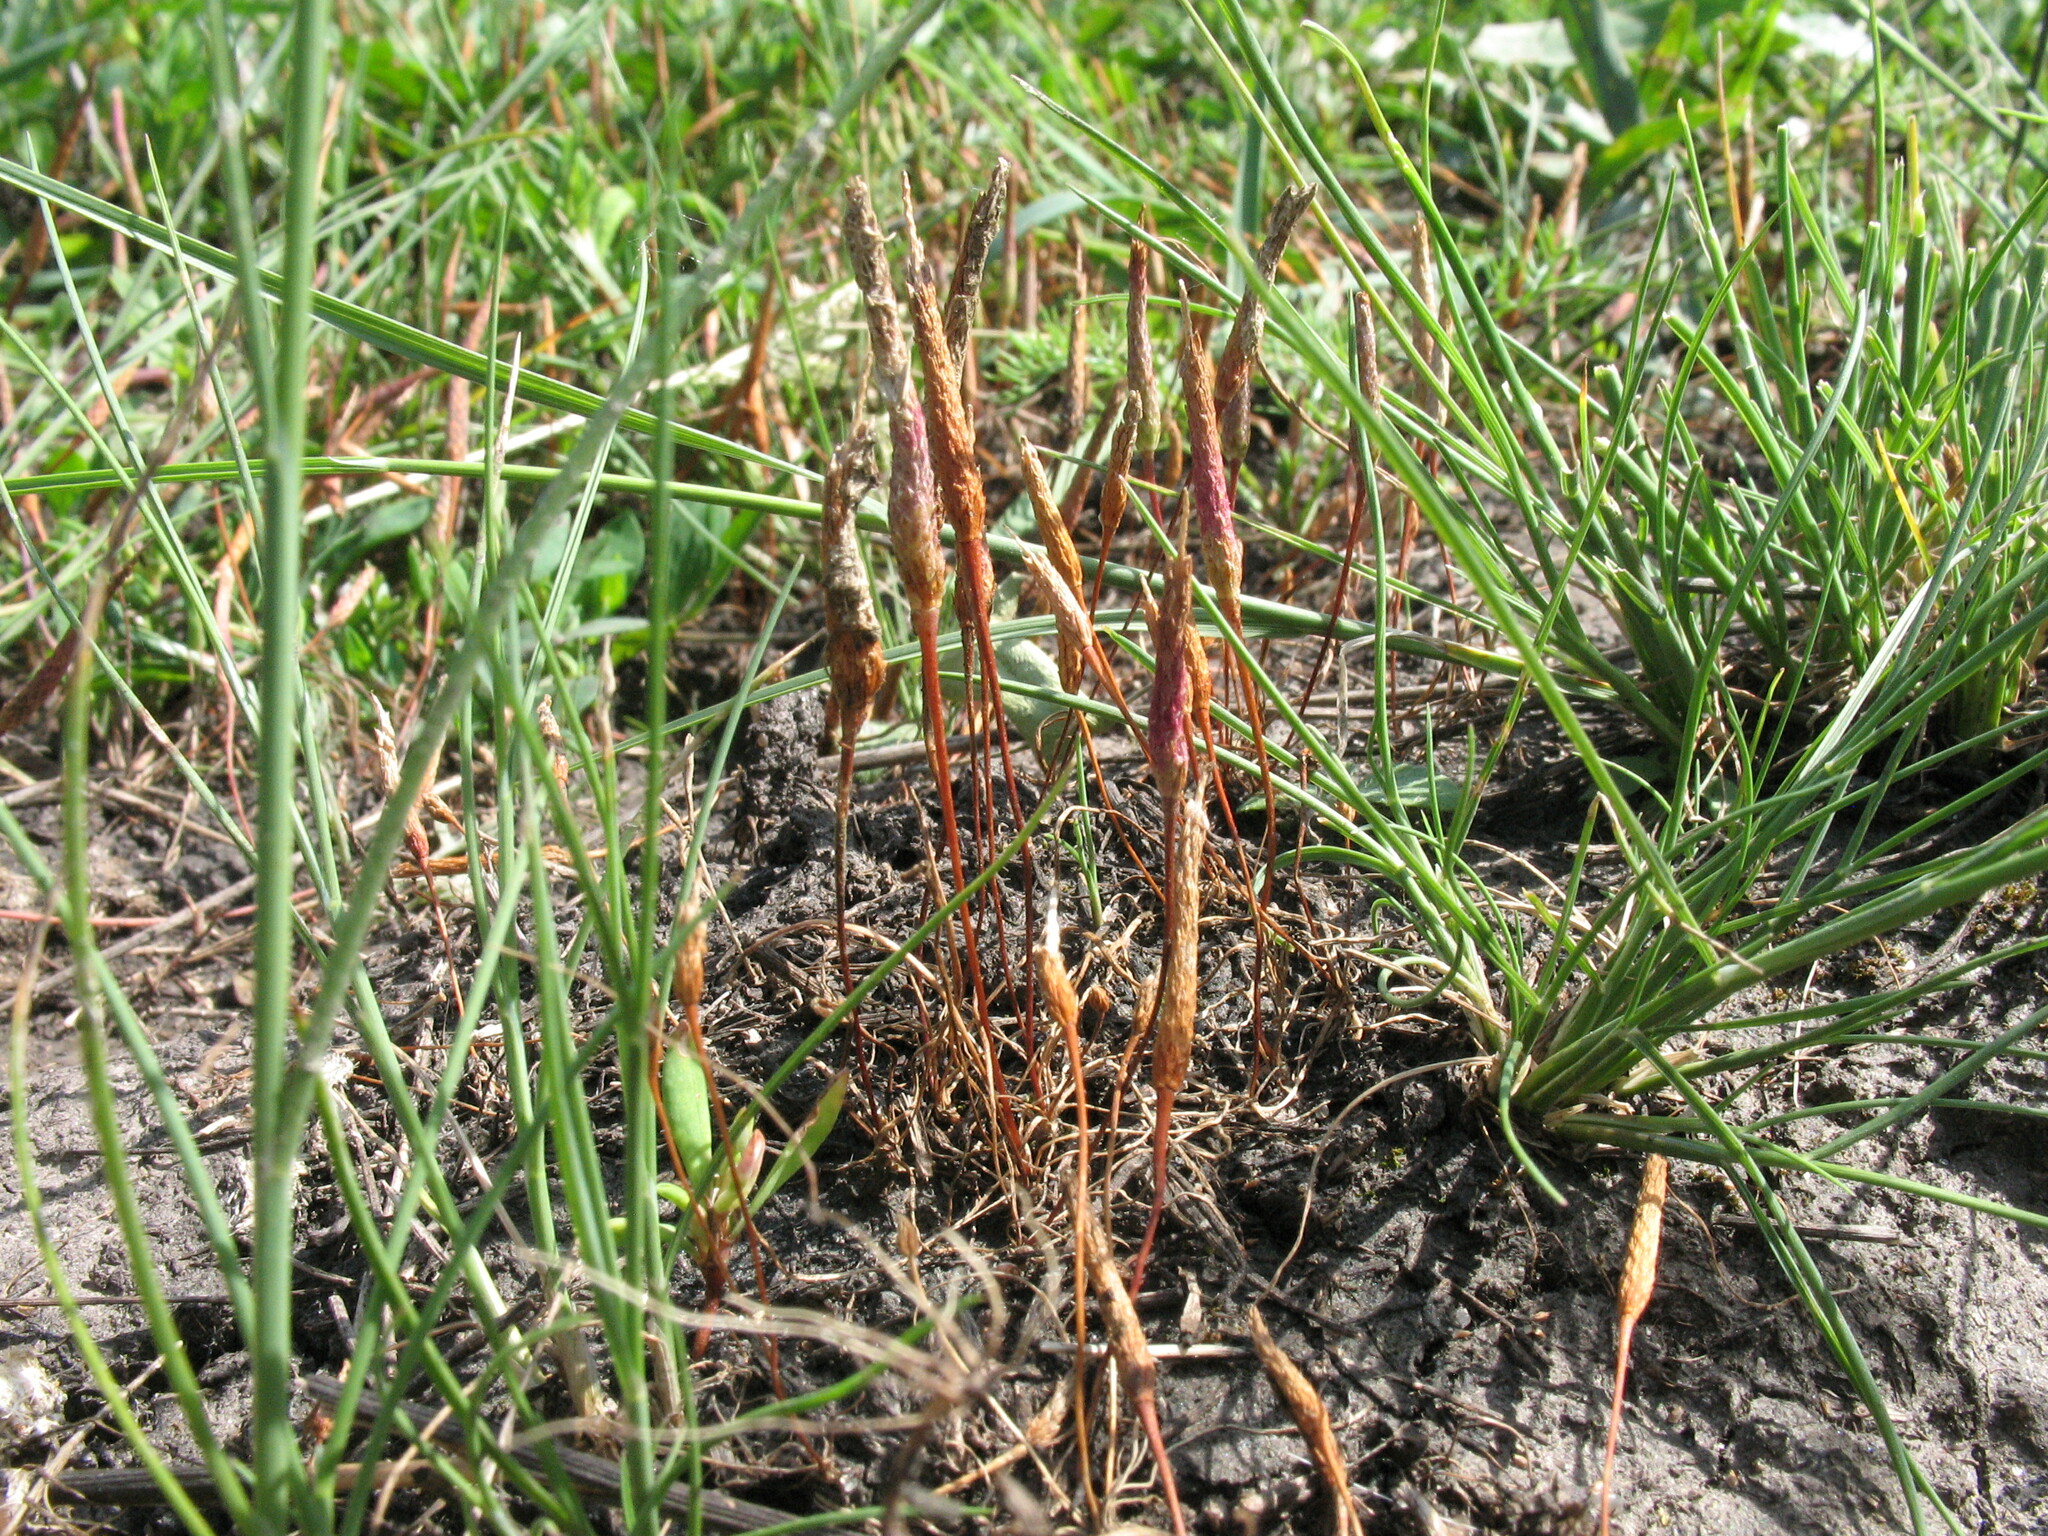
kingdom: Plantae
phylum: Tracheophyta
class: Magnoliopsida
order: Ranunculales
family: Ranunculaceae
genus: Myosurus
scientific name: Myosurus minimus
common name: Mousetail
